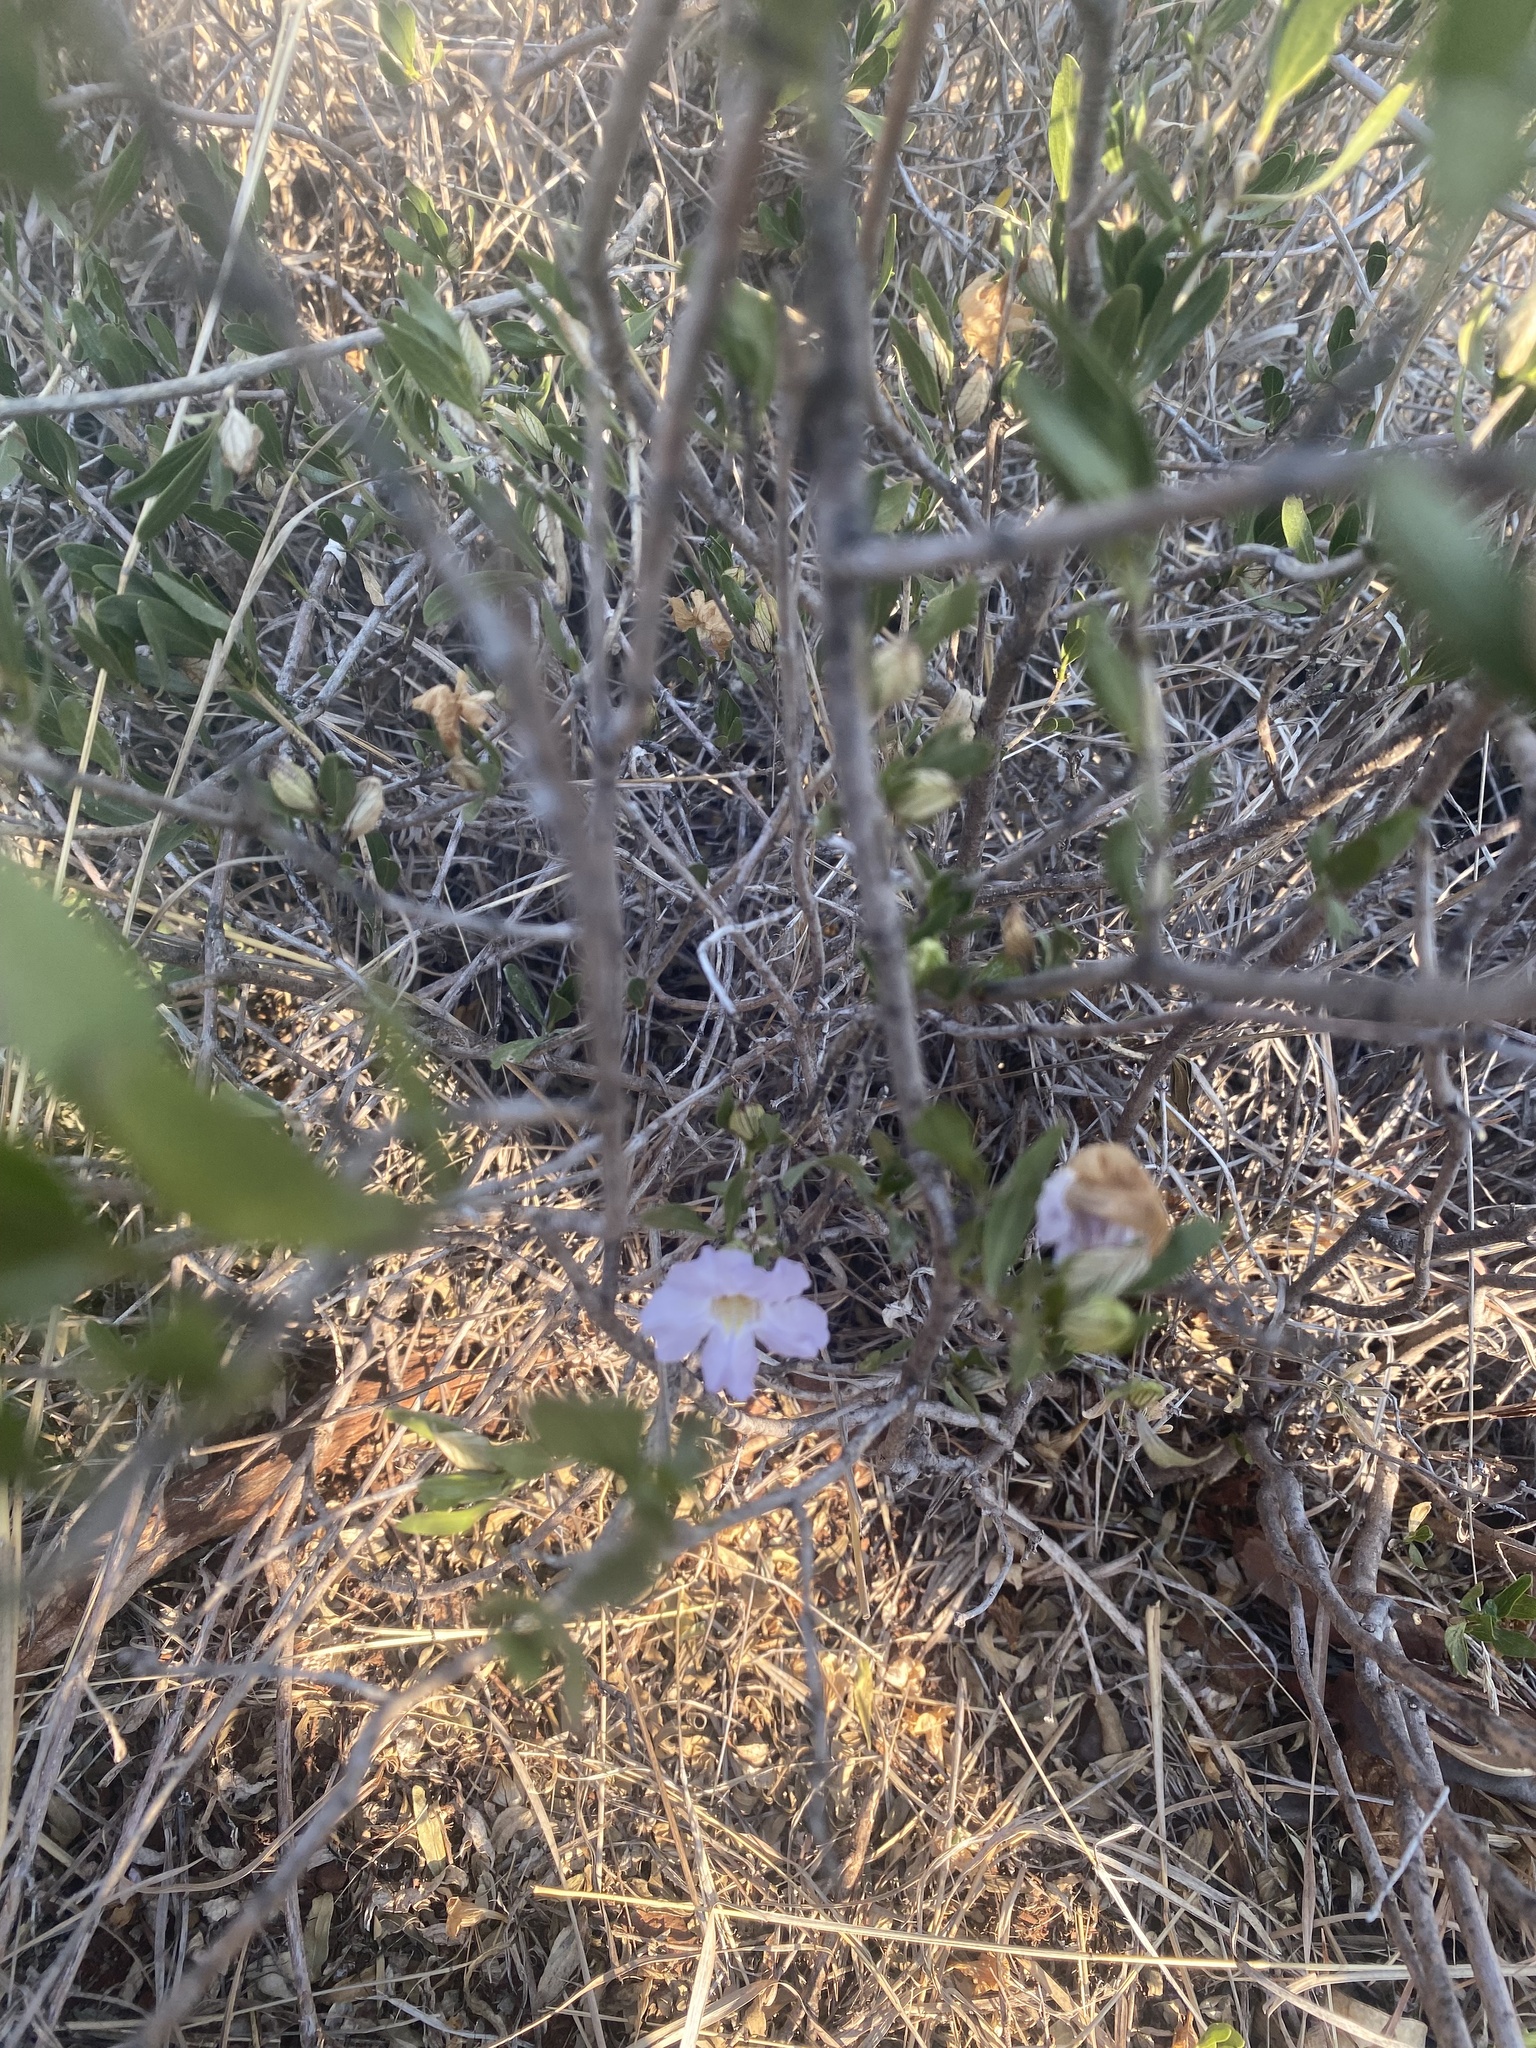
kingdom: Plantae
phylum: Tracheophyta
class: Magnoliopsida
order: Lamiales
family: Acanthaceae
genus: Petalidium
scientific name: Petalidium oblongifolium
